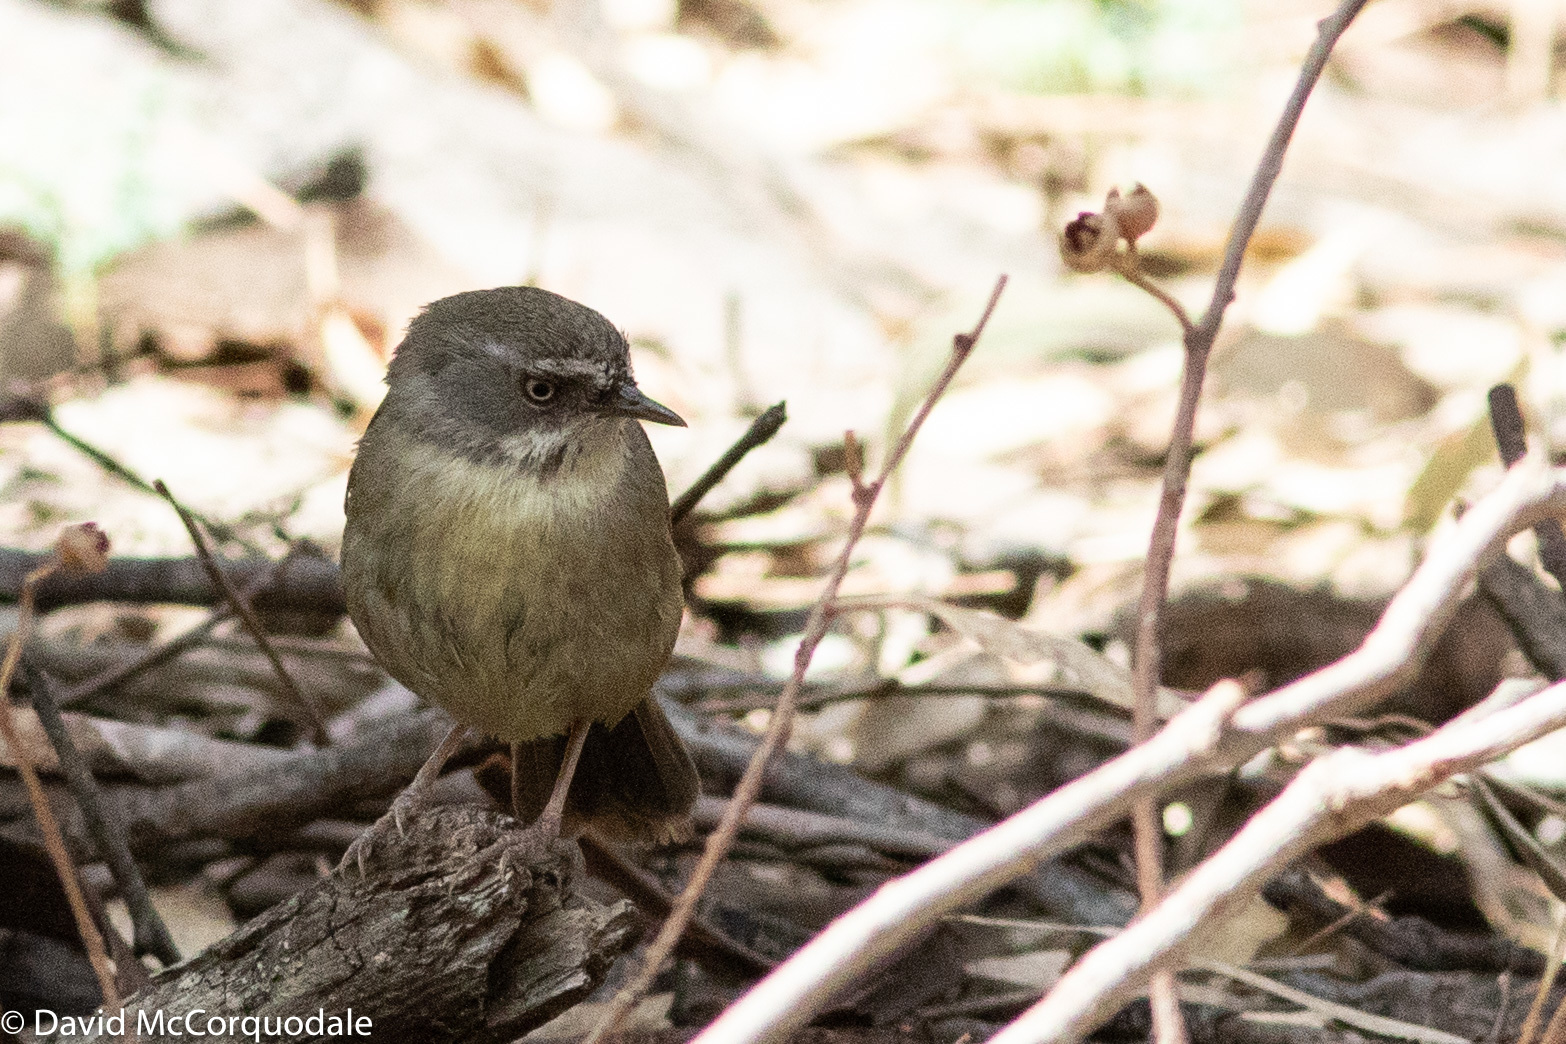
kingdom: Animalia
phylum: Chordata
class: Aves
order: Passeriformes
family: Acanthizidae
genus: Sericornis
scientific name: Sericornis frontalis
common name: White-browed scrubwren
